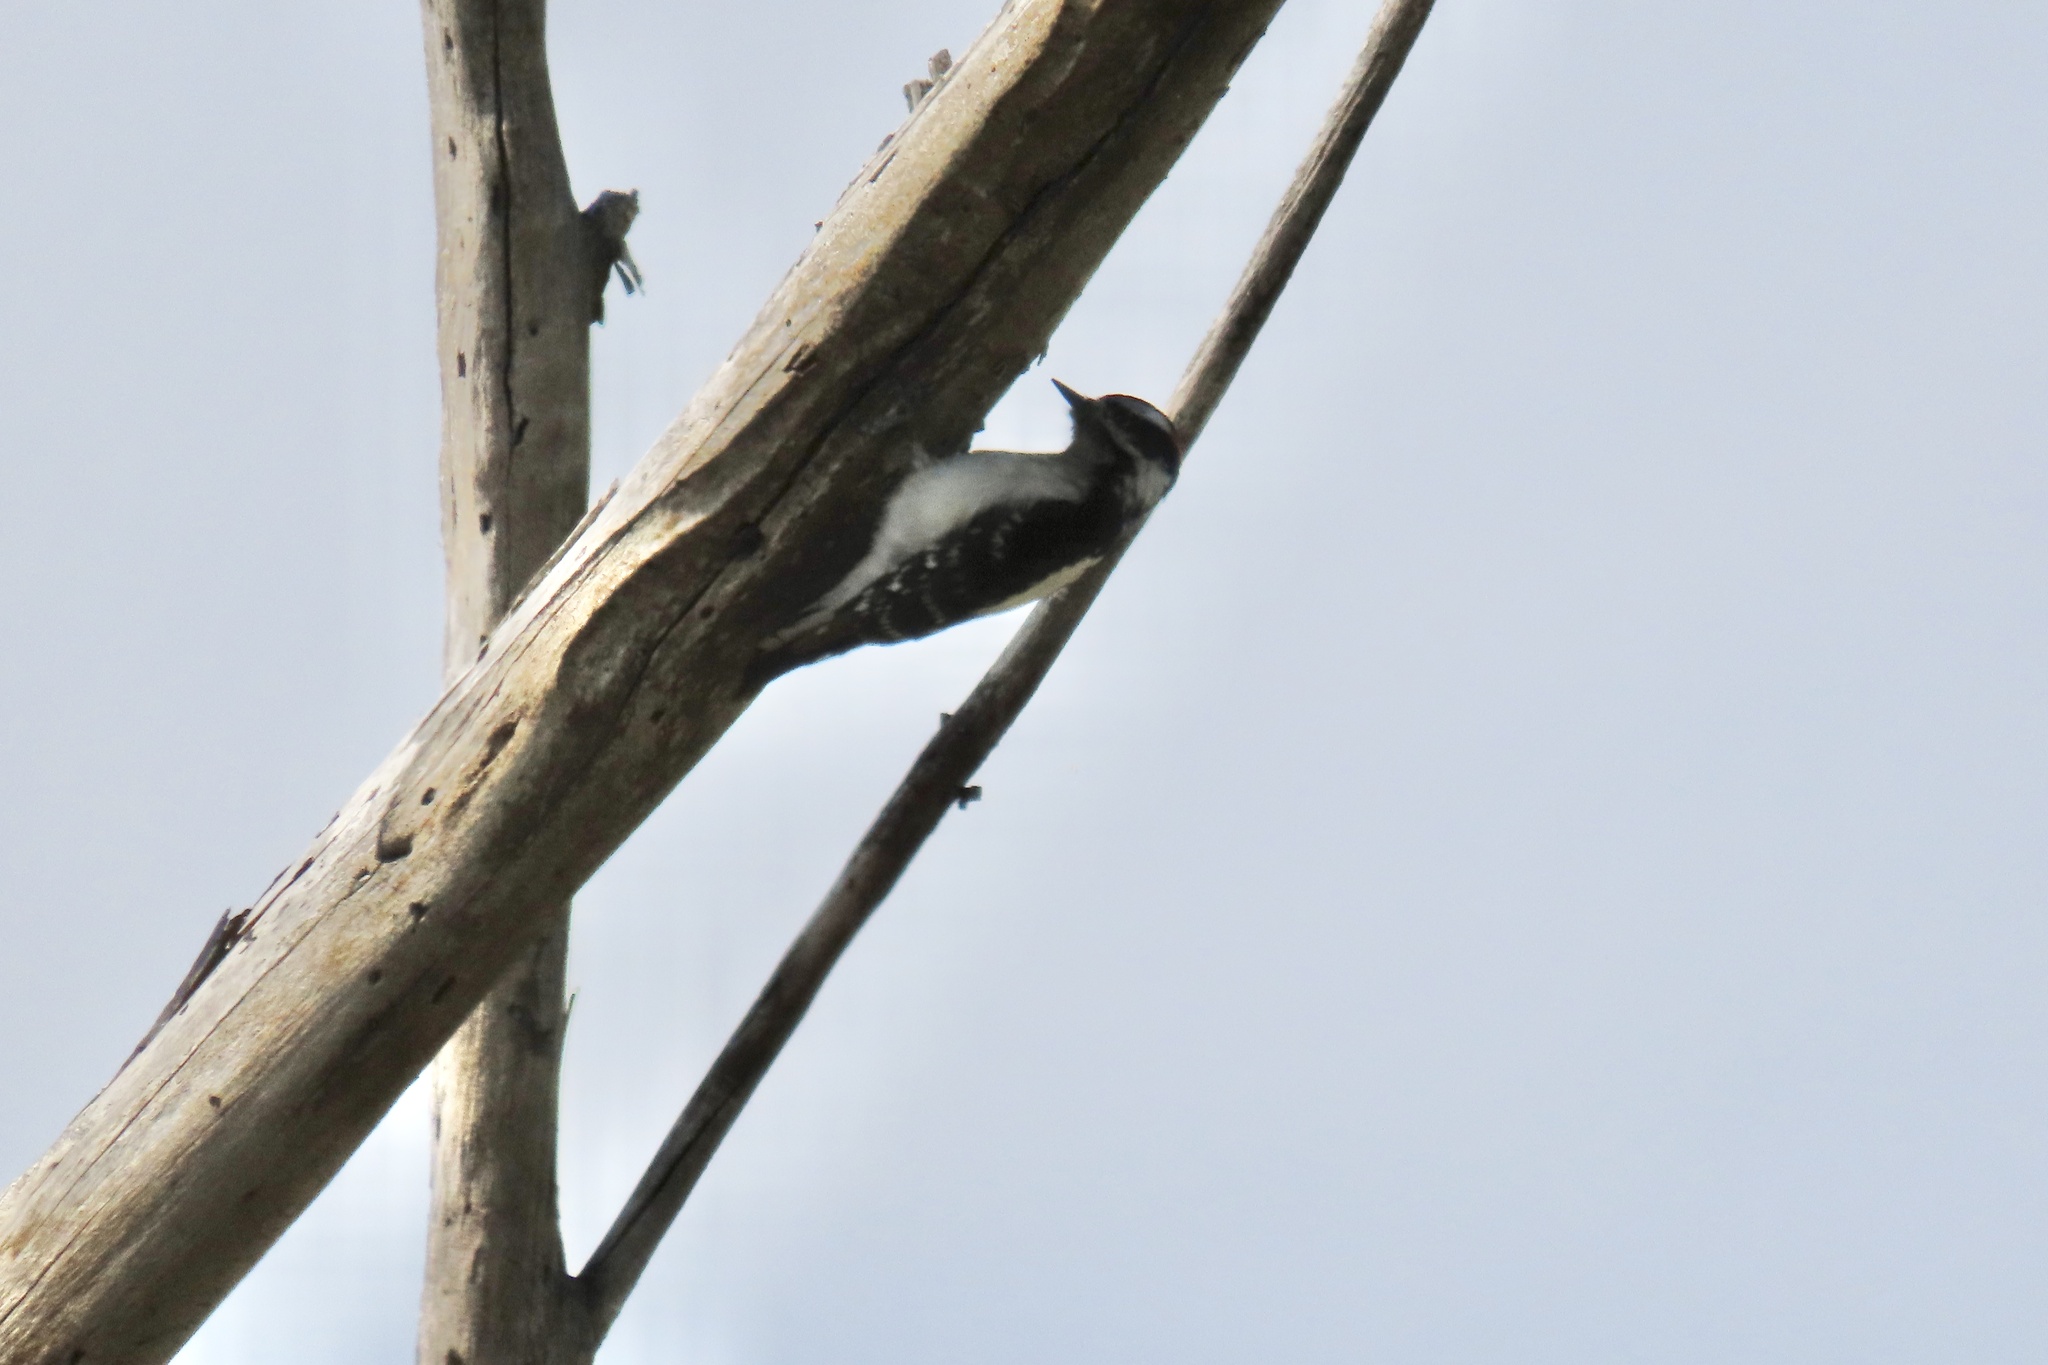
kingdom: Animalia
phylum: Chordata
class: Aves
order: Piciformes
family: Picidae
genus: Dryobates
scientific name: Dryobates pubescens
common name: Downy woodpecker
